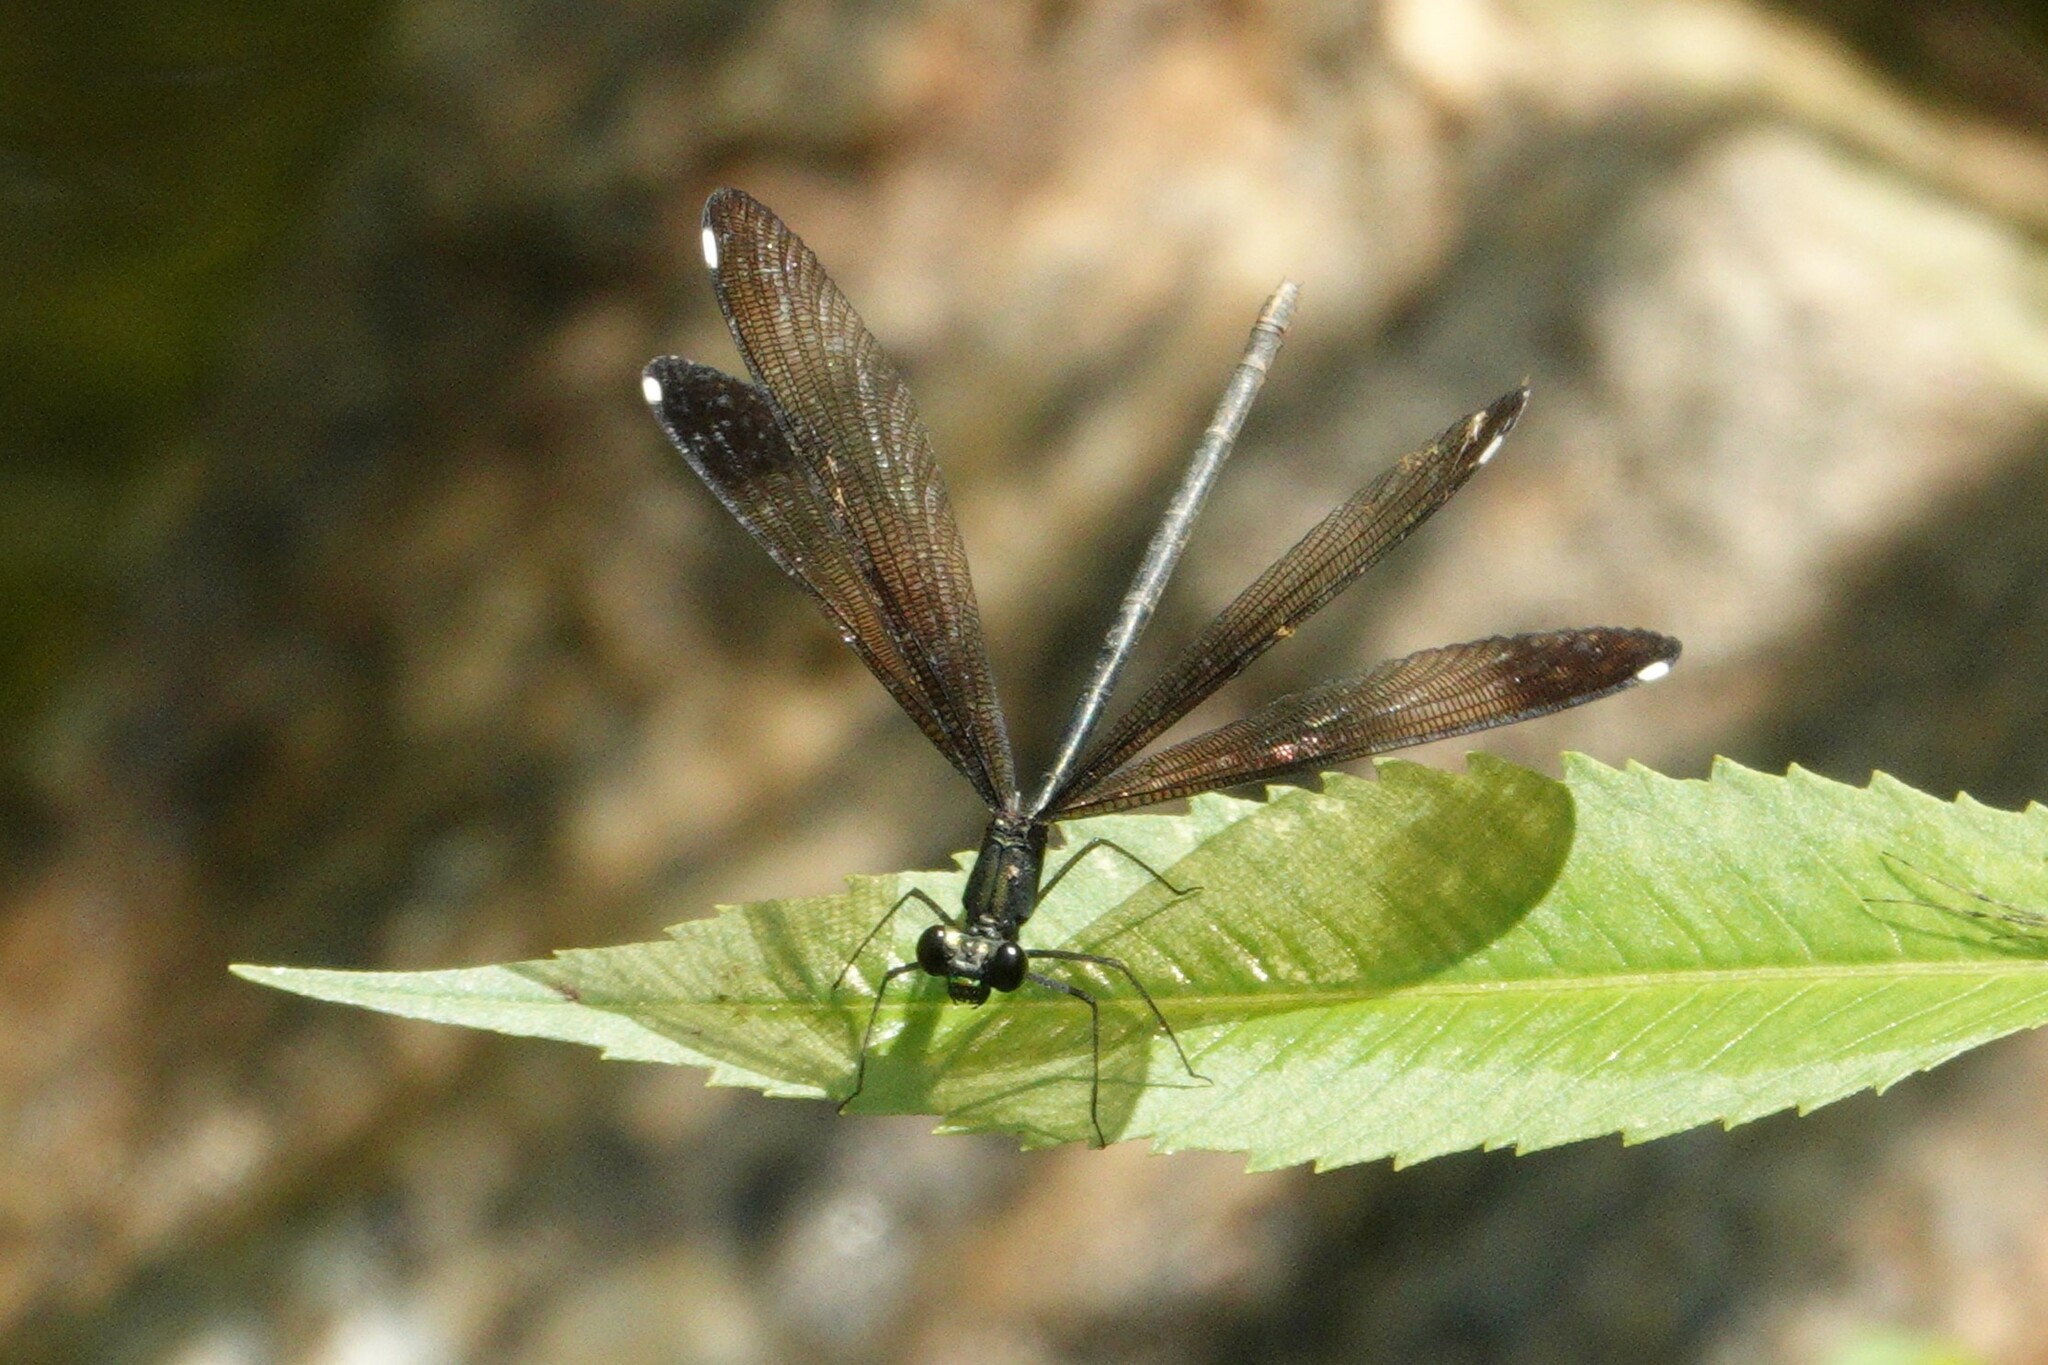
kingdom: Animalia
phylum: Arthropoda
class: Insecta
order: Odonata
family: Calopterygidae
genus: Calopteryx
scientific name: Calopteryx maculata
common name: Ebony jewelwing
